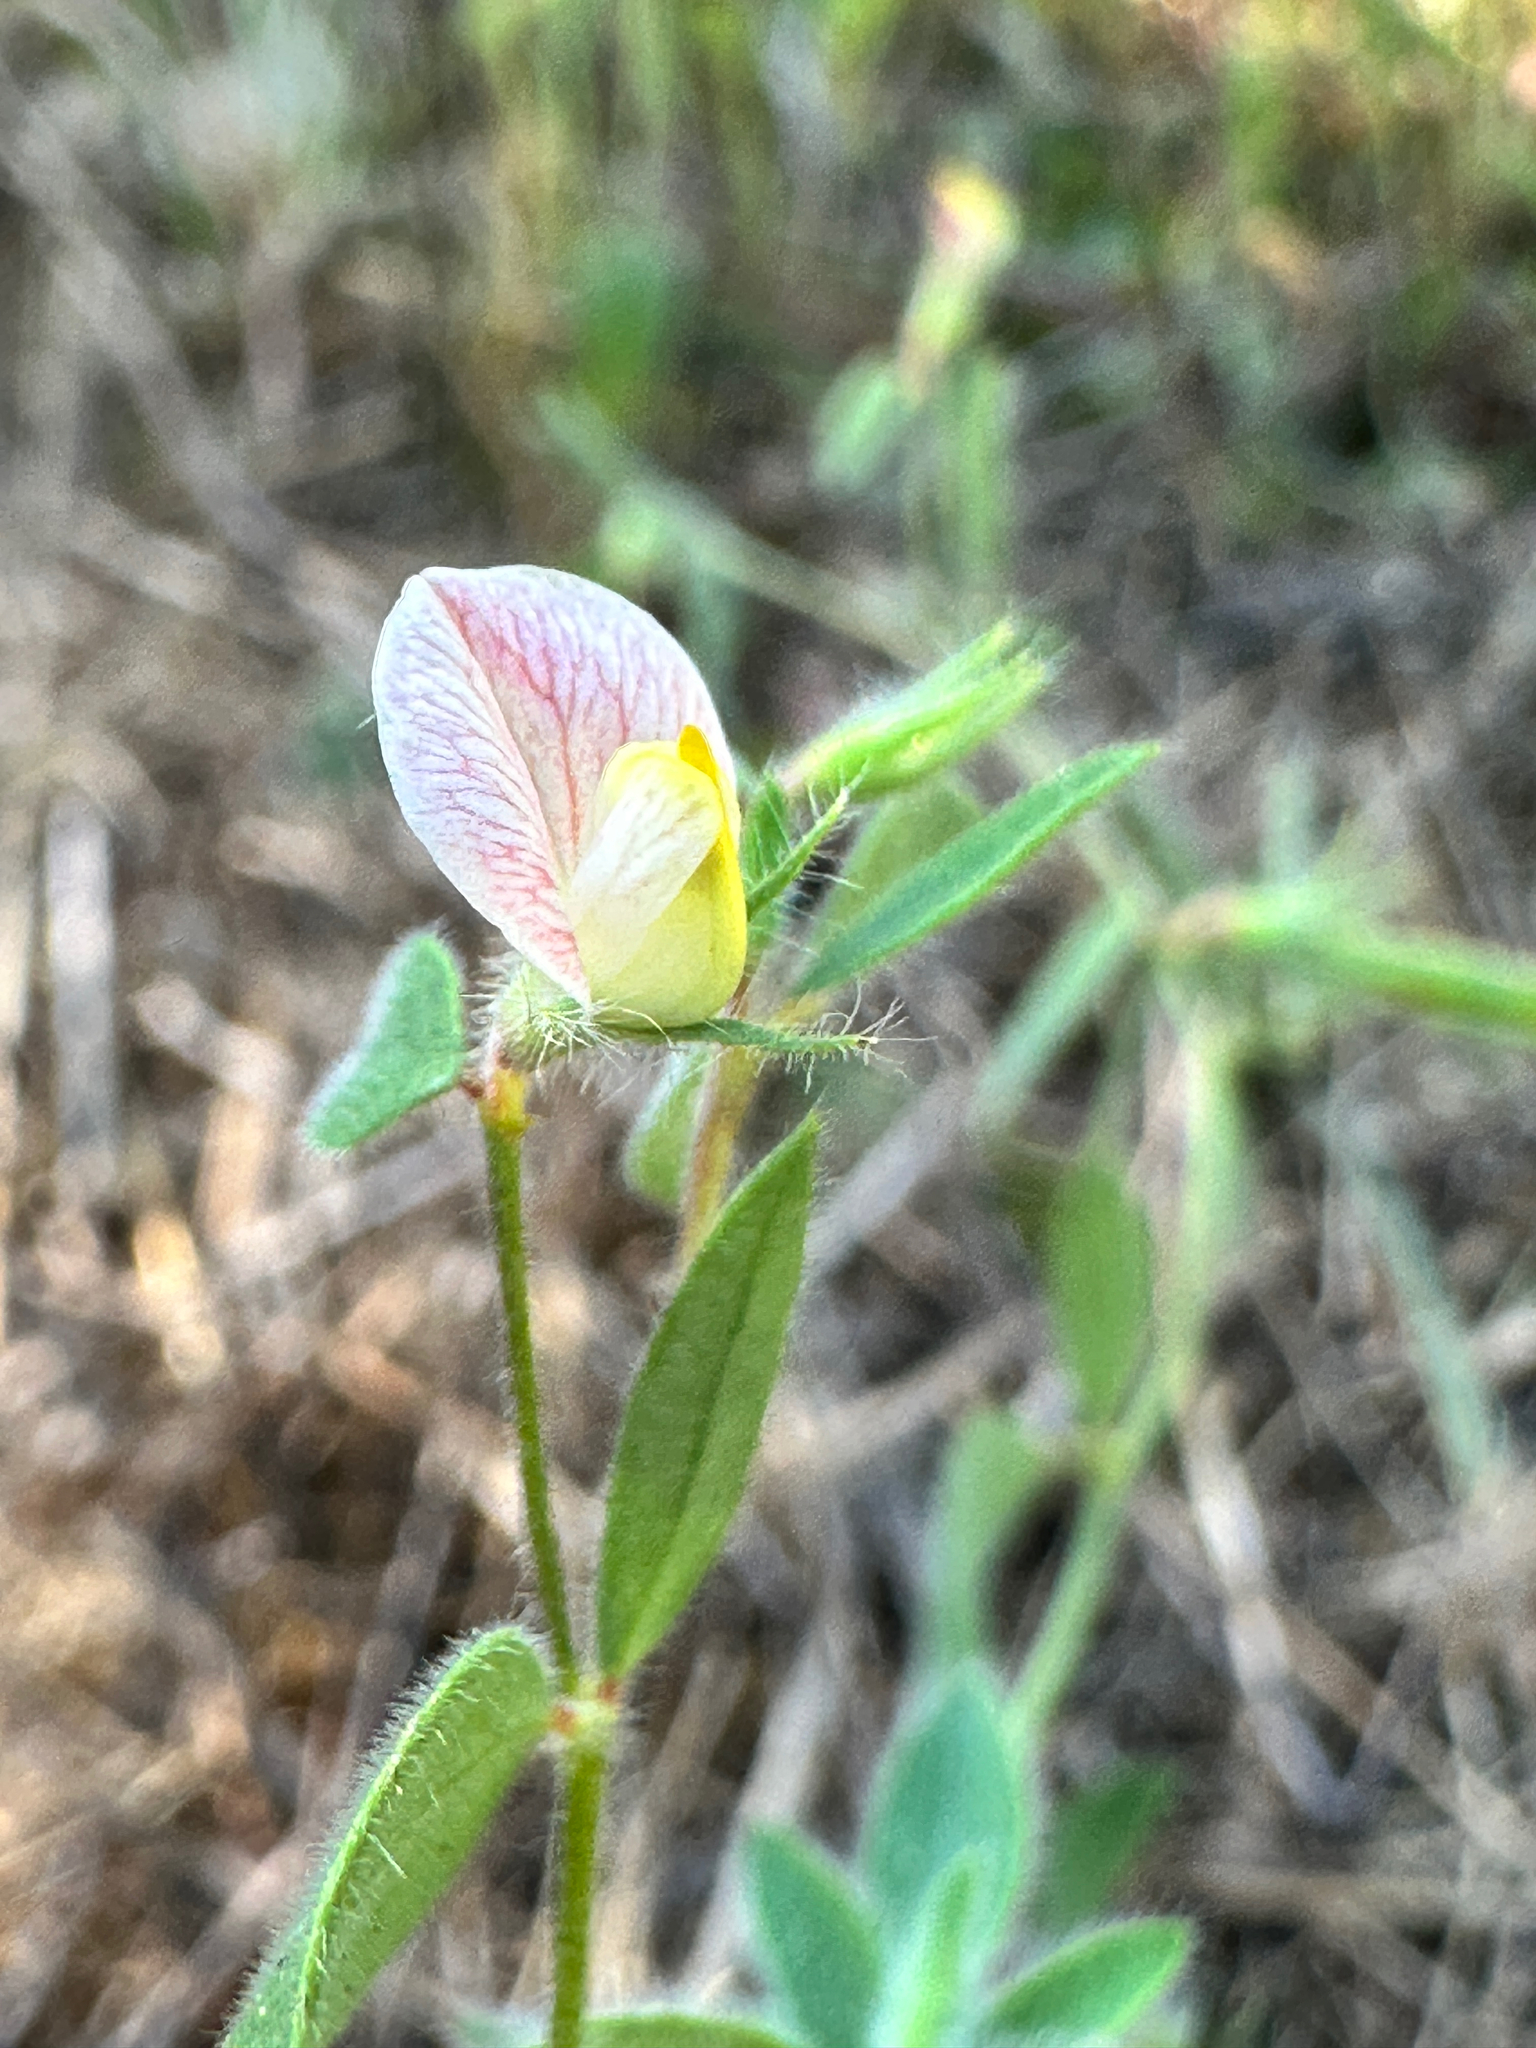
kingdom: Plantae
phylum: Tracheophyta
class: Magnoliopsida
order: Fabales
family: Fabaceae
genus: Acmispon
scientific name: Acmispon americanus
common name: American bird's-foot trefoil
